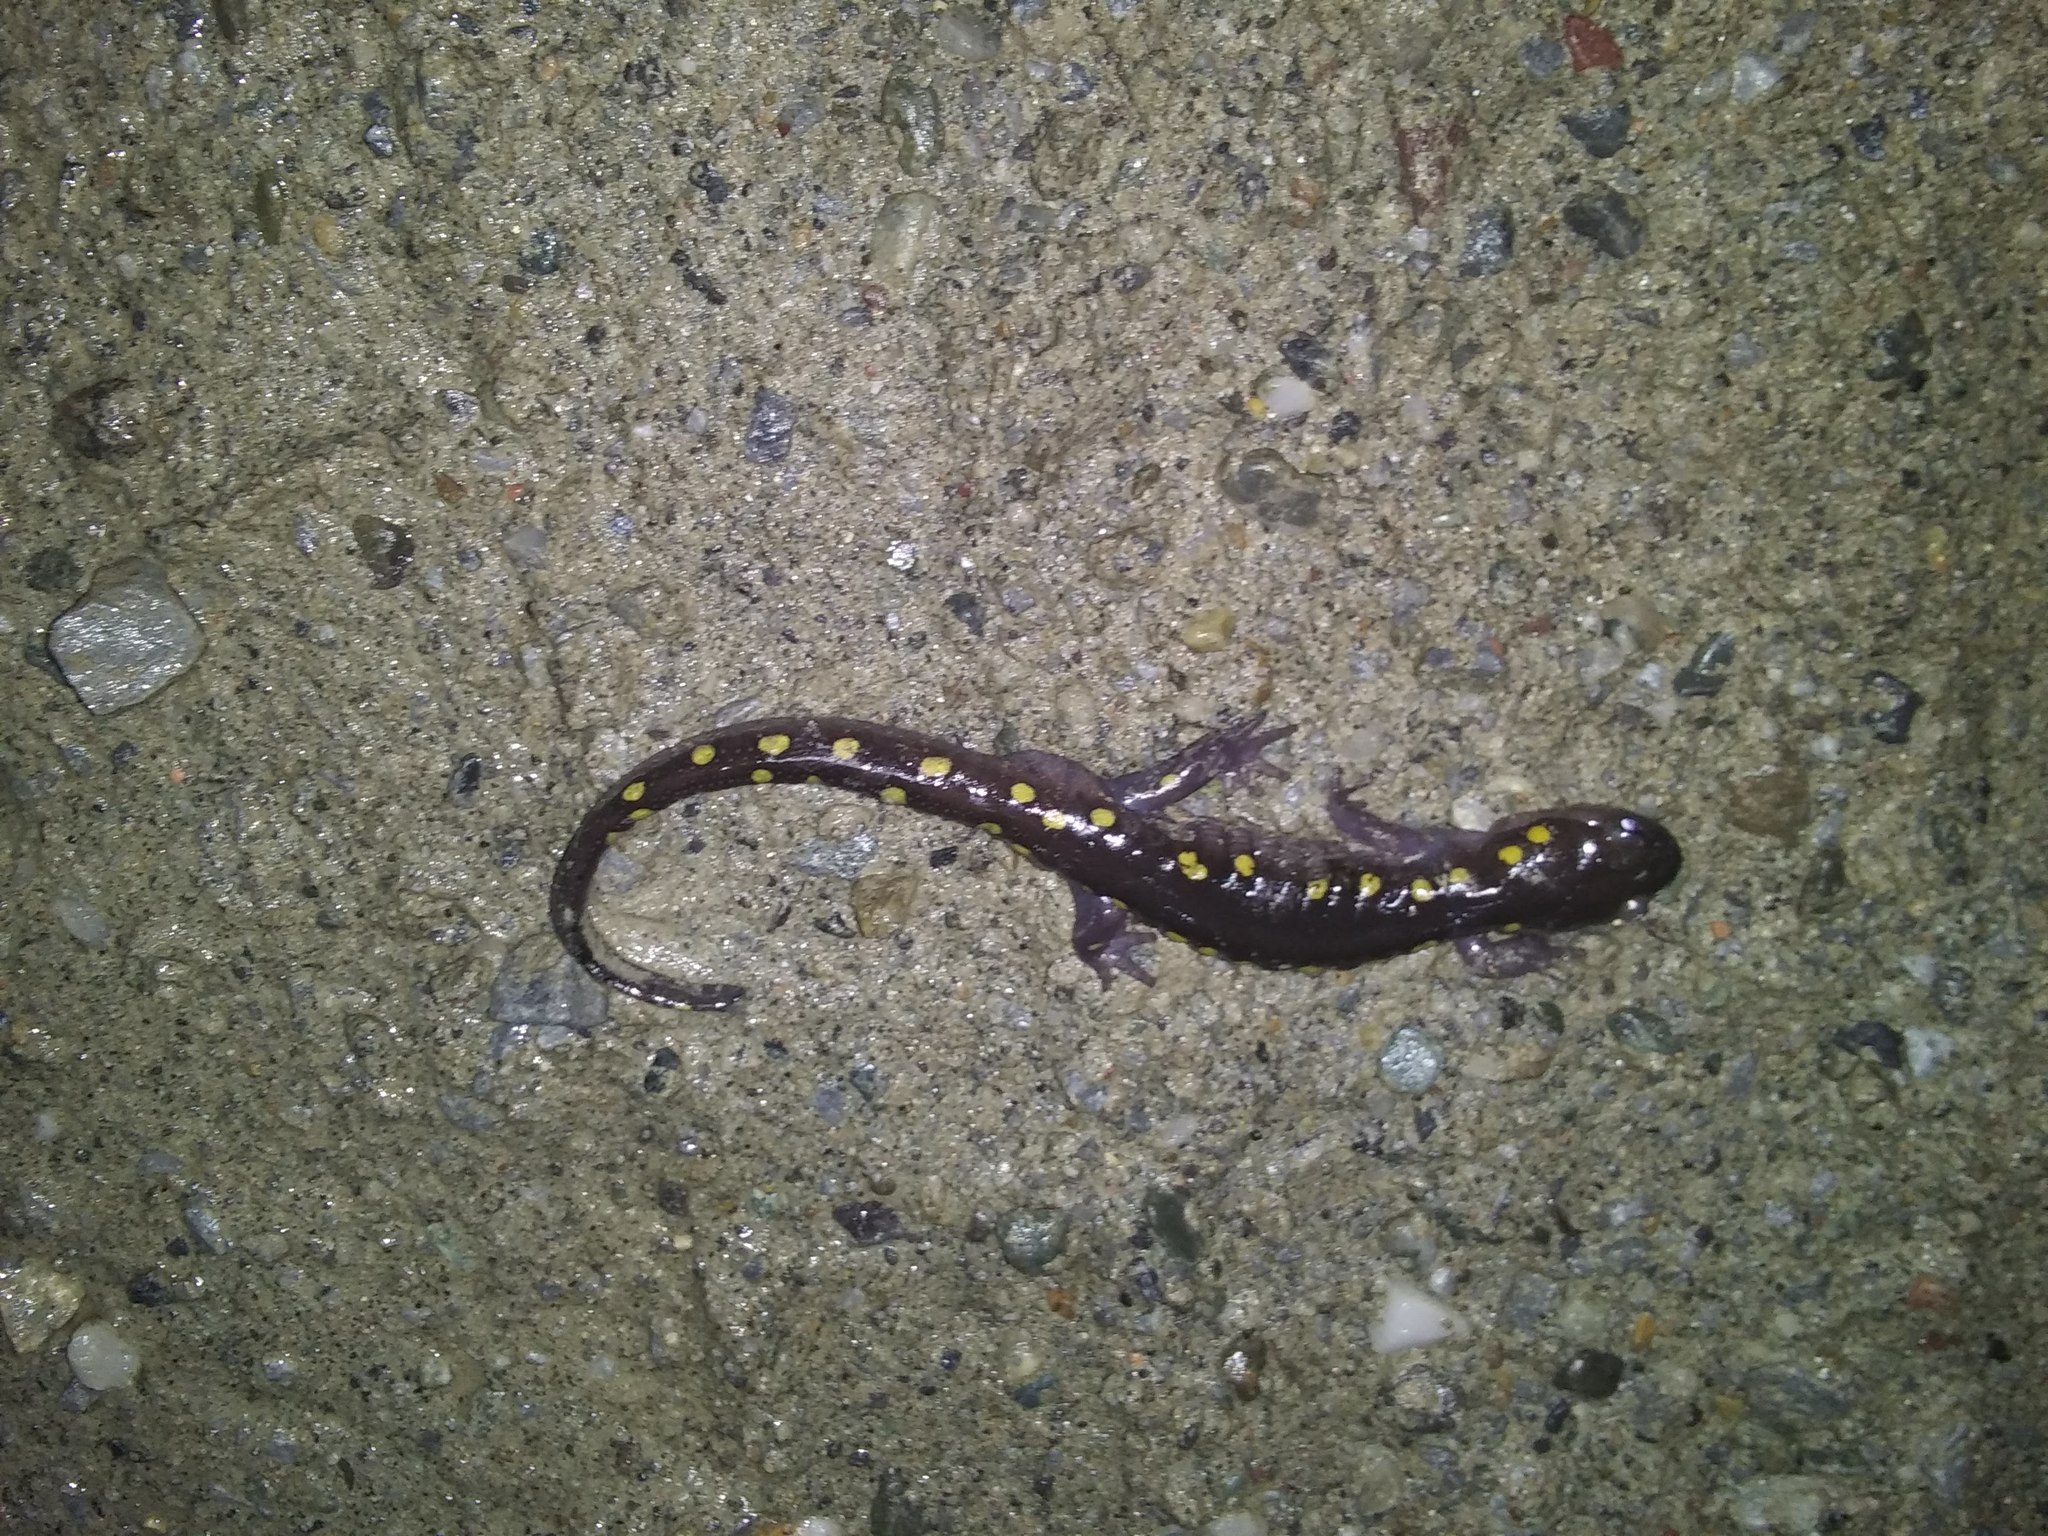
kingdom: Animalia
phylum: Chordata
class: Amphibia
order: Caudata
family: Ambystomatidae
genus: Ambystoma
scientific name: Ambystoma maculatum
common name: Spotted salamander
